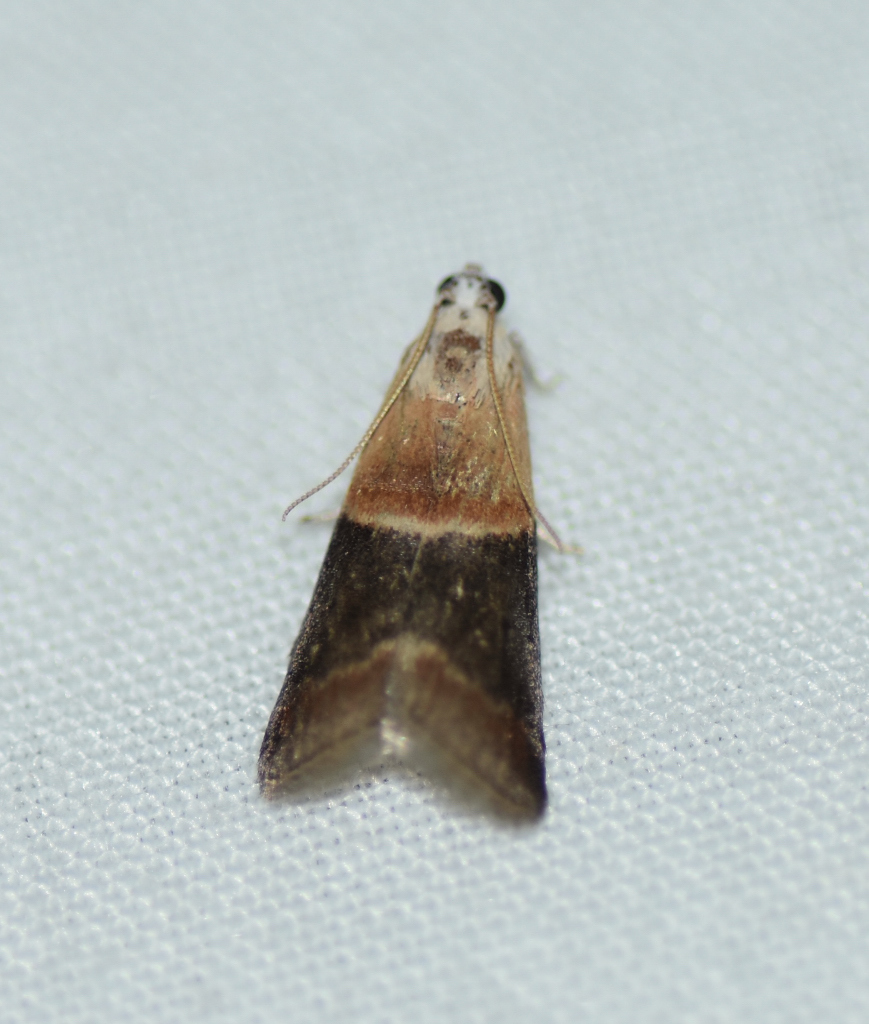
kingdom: Animalia
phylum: Arthropoda
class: Insecta
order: Lepidoptera
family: Pyralidae
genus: Acrobasis
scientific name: Acrobasis demotella
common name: Walnut shoot moth
